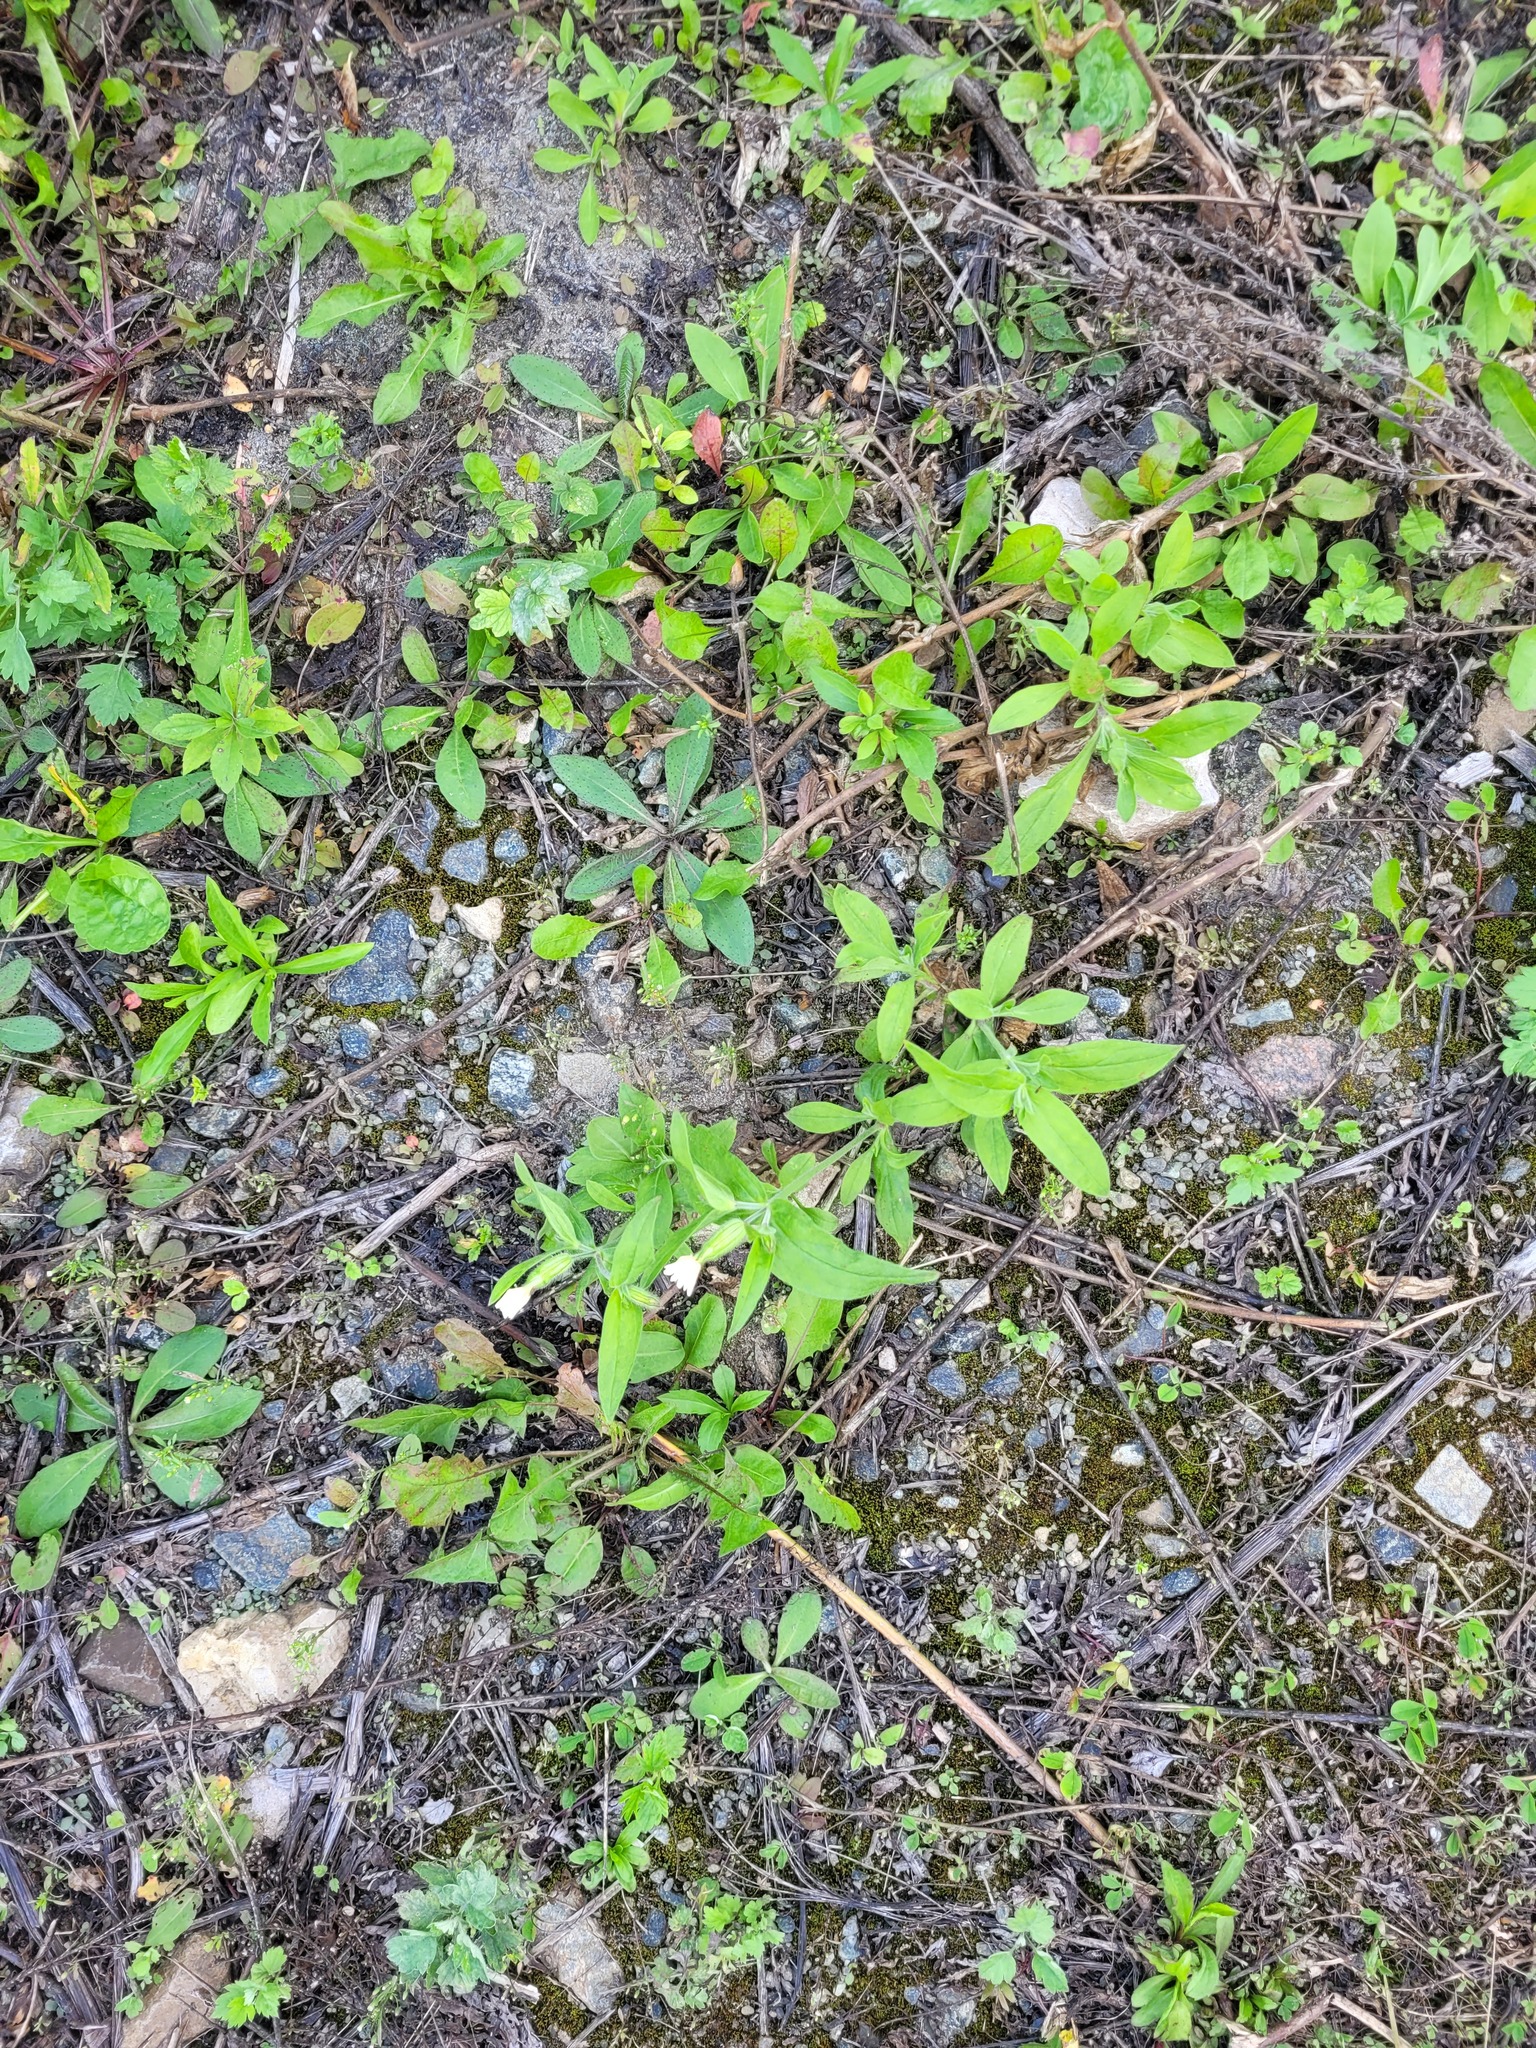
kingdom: Plantae
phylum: Tracheophyta
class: Magnoliopsida
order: Caryophyllales
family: Caryophyllaceae
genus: Silene
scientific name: Silene latifolia
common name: White campion
